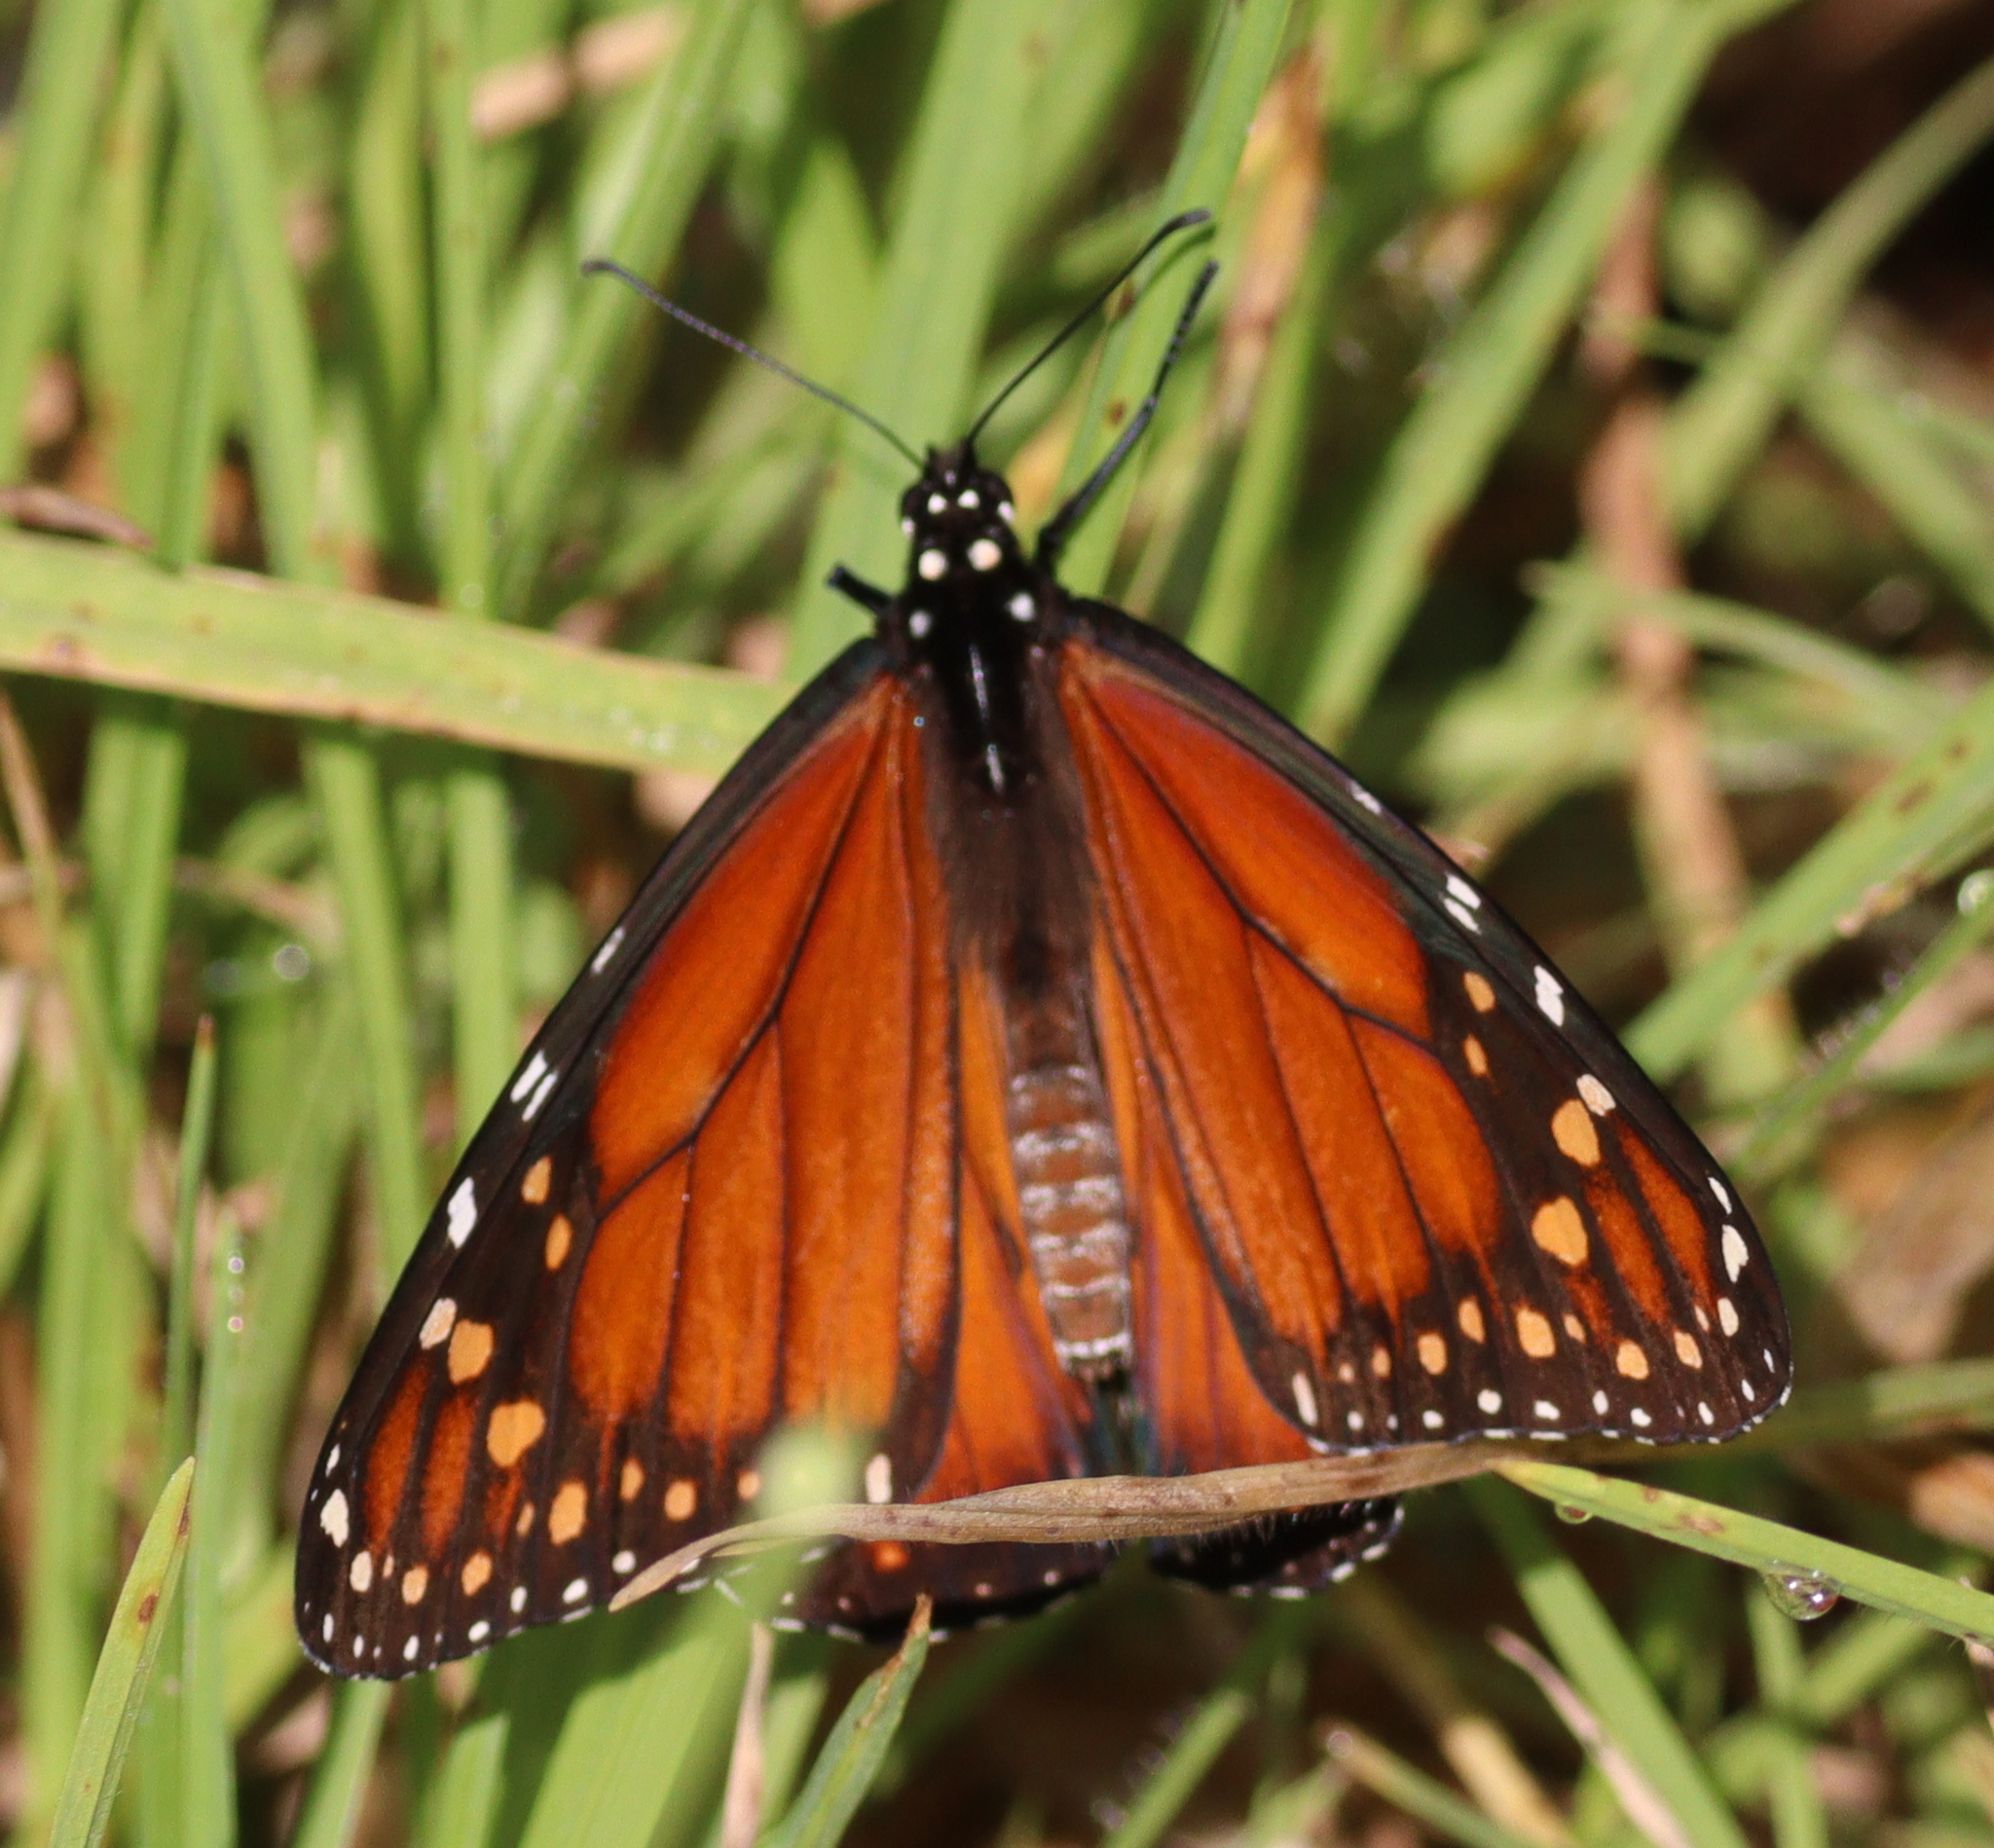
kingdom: Animalia
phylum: Arthropoda
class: Insecta
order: Lepidoptera
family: Nymphalidae
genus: Danaus
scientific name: Danaus erippus
